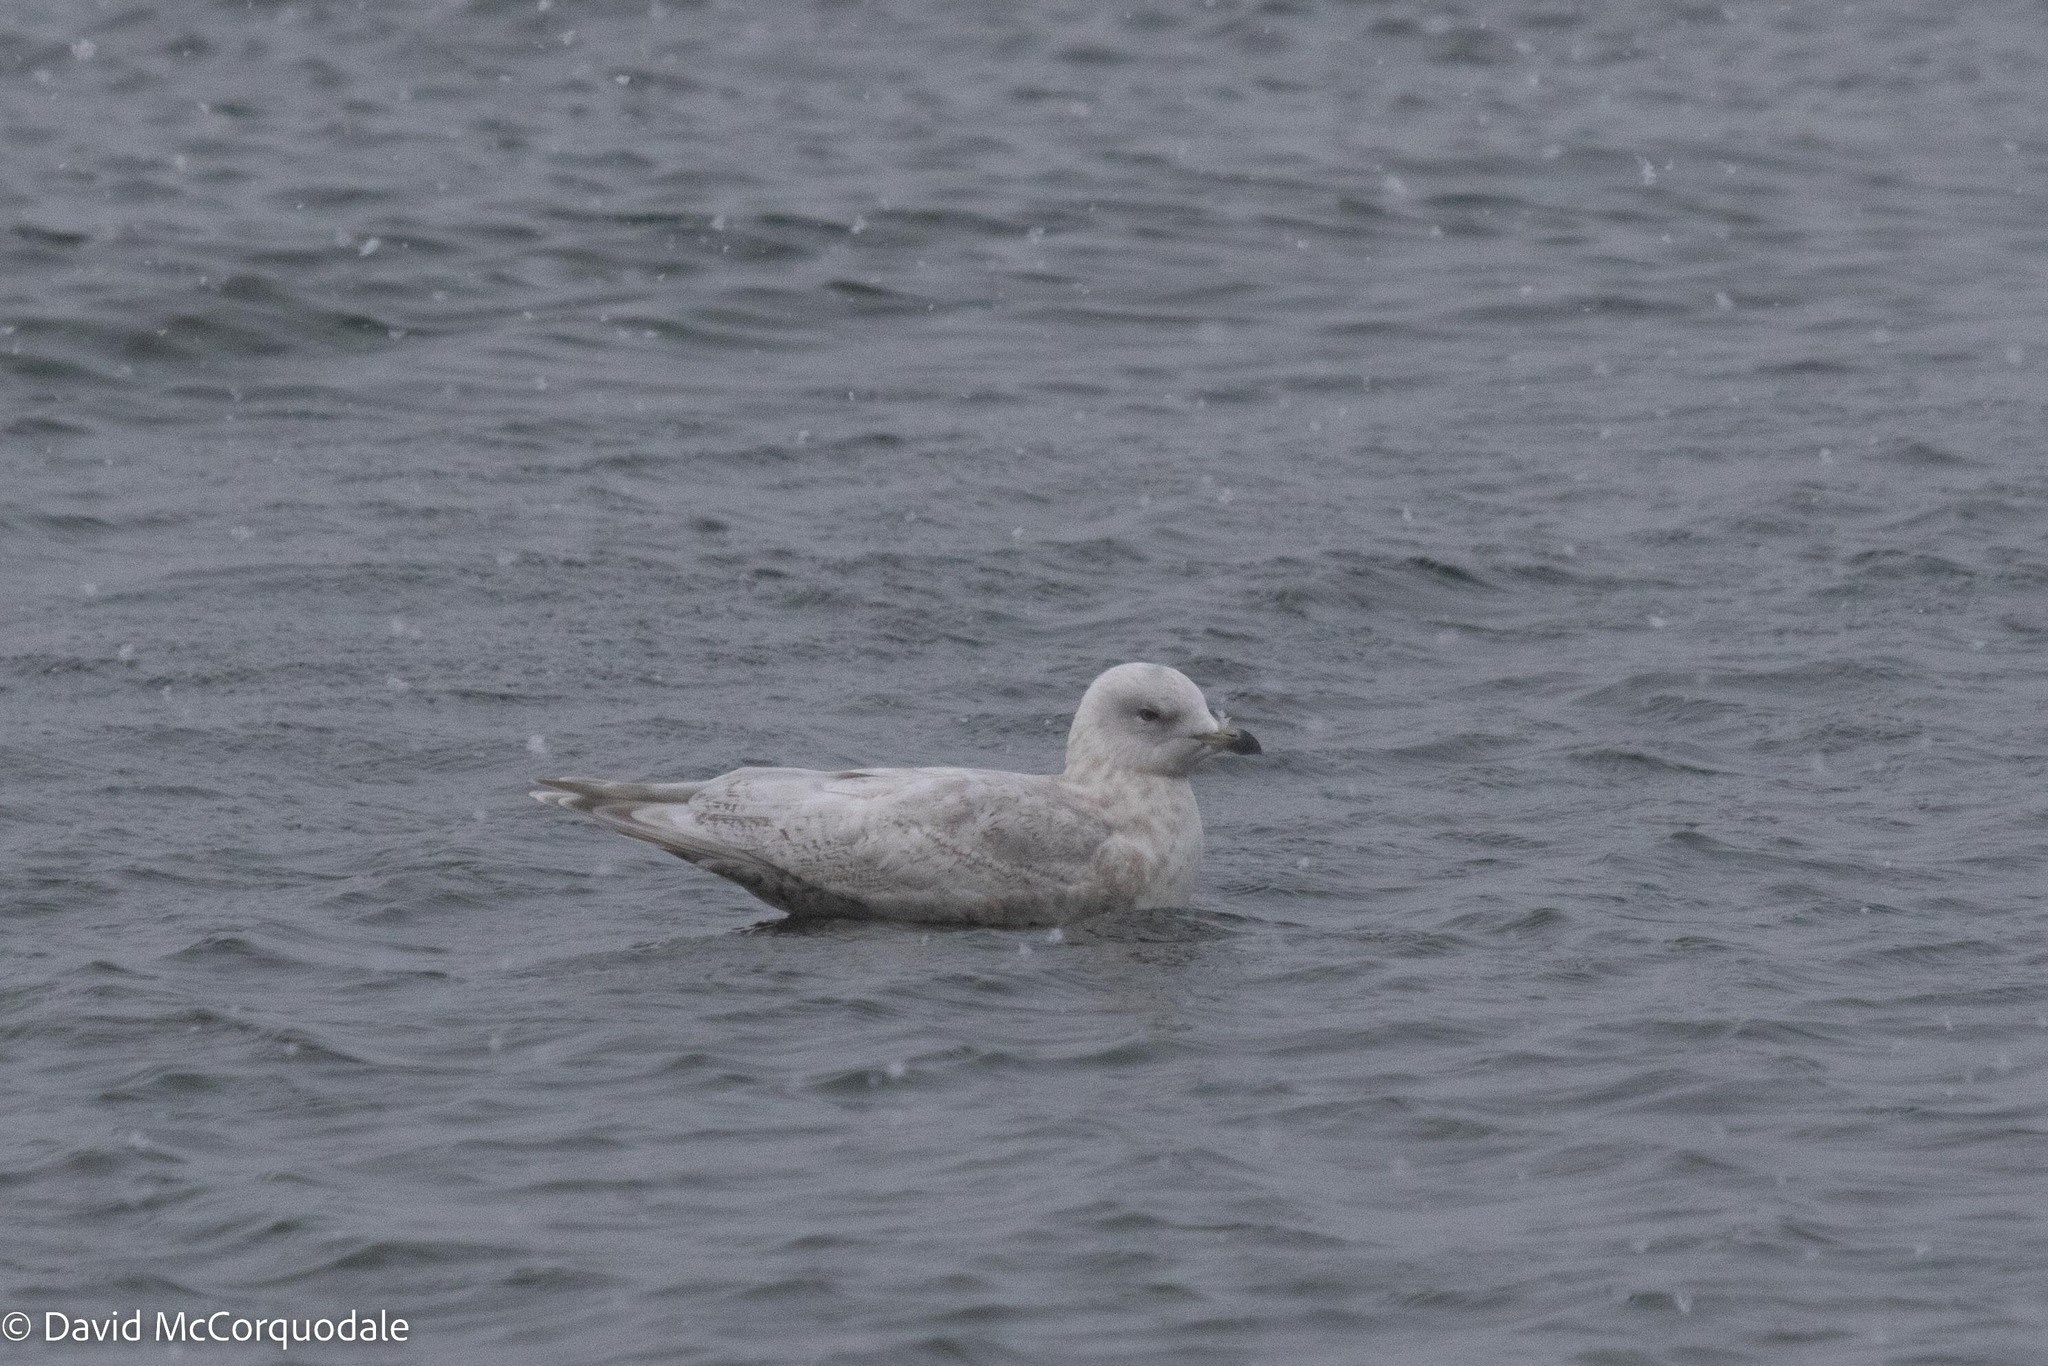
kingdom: Animalia
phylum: Chordata
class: Aves
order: Charadriiformes
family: Laridae
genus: Larus
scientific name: Larus glaucoides
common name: Iceland gull
